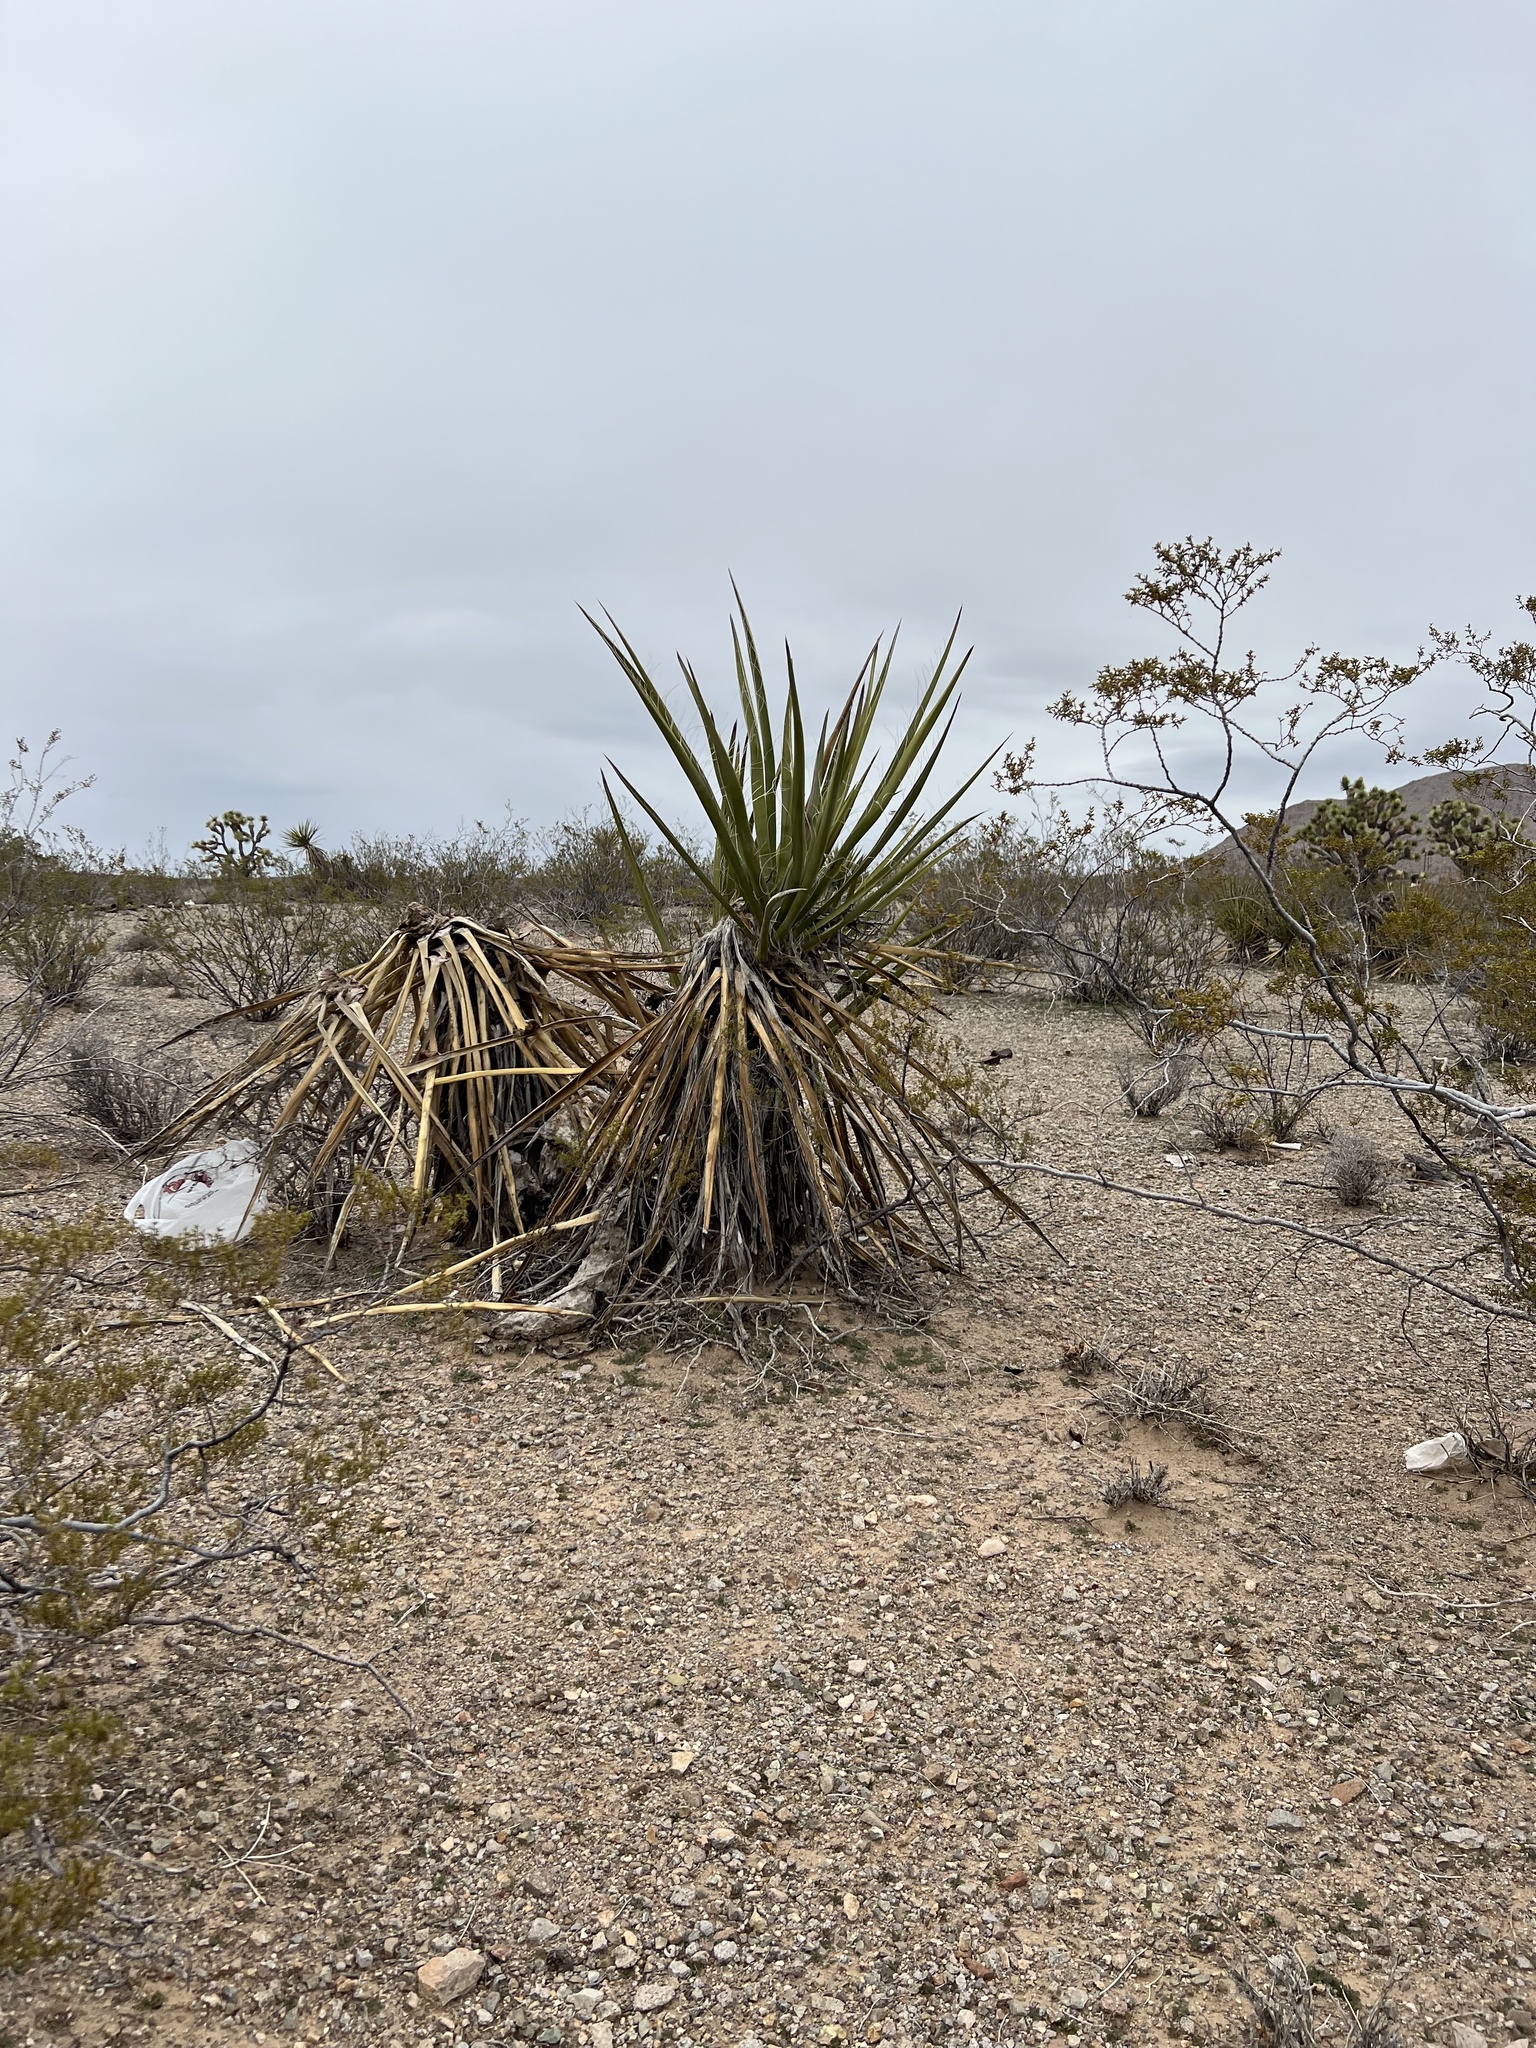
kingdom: Plantae
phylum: Tracheophyta
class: Liliopsida
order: Asparagales
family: Asparagaceae
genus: Yucca
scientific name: Yucca schidigera
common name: Mojave yucca
